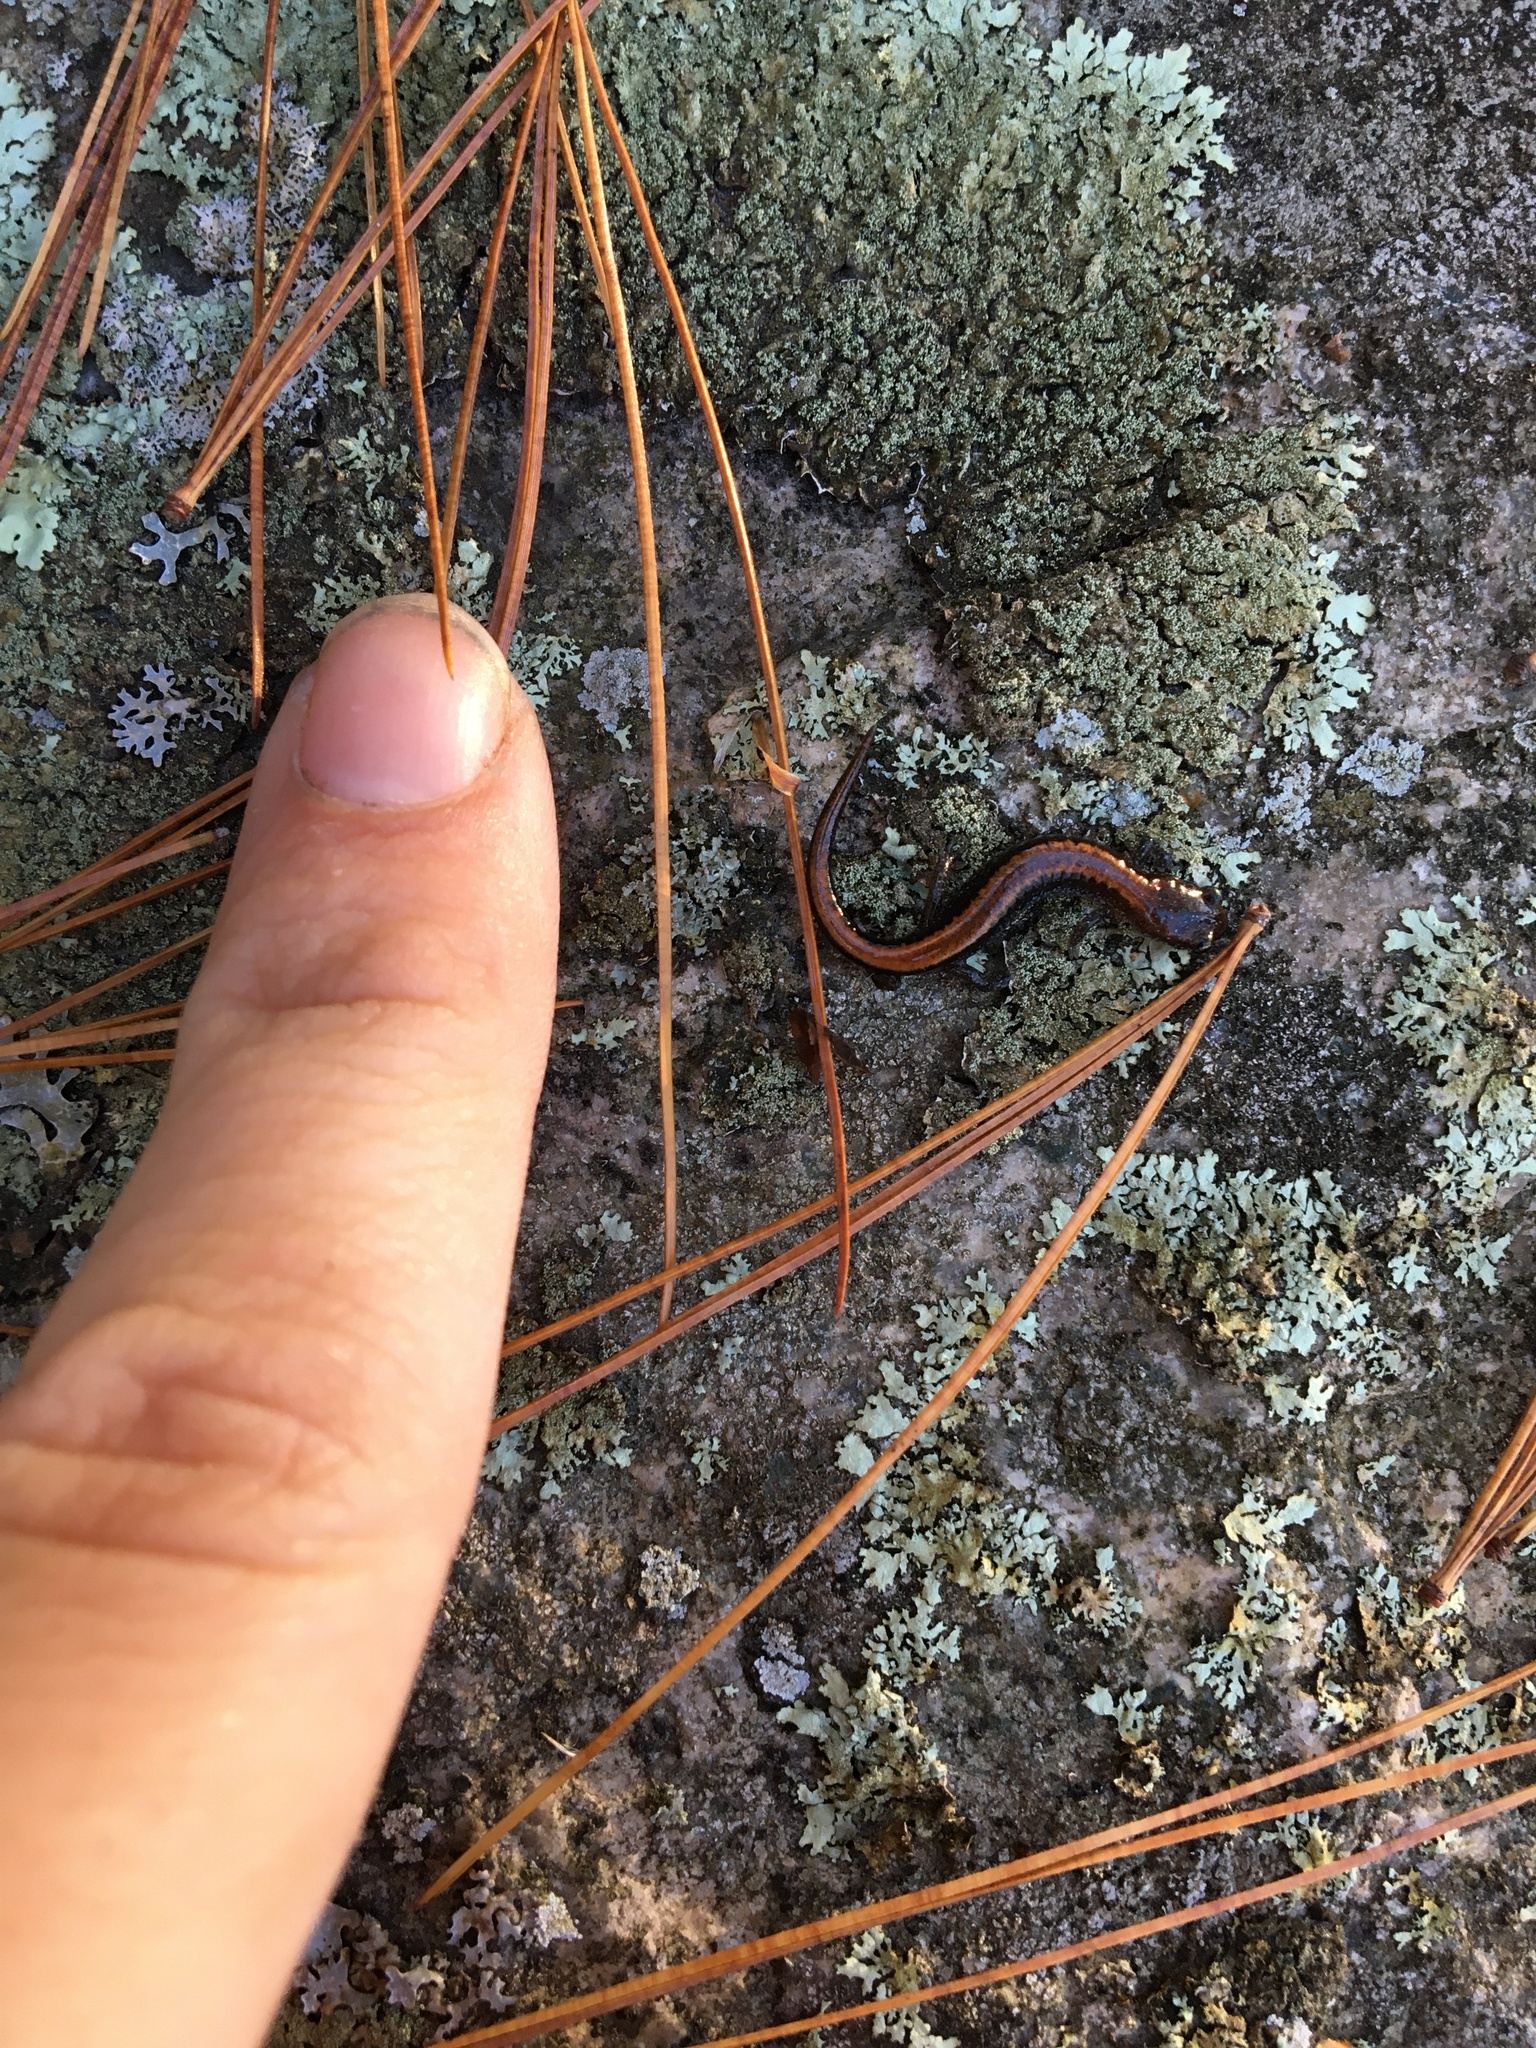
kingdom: Animalia
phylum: Chordata
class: Amphibia
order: Caudata
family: Plethodontidae
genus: Plethodon
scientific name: Plethodon cinereus
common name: Redback salamander
